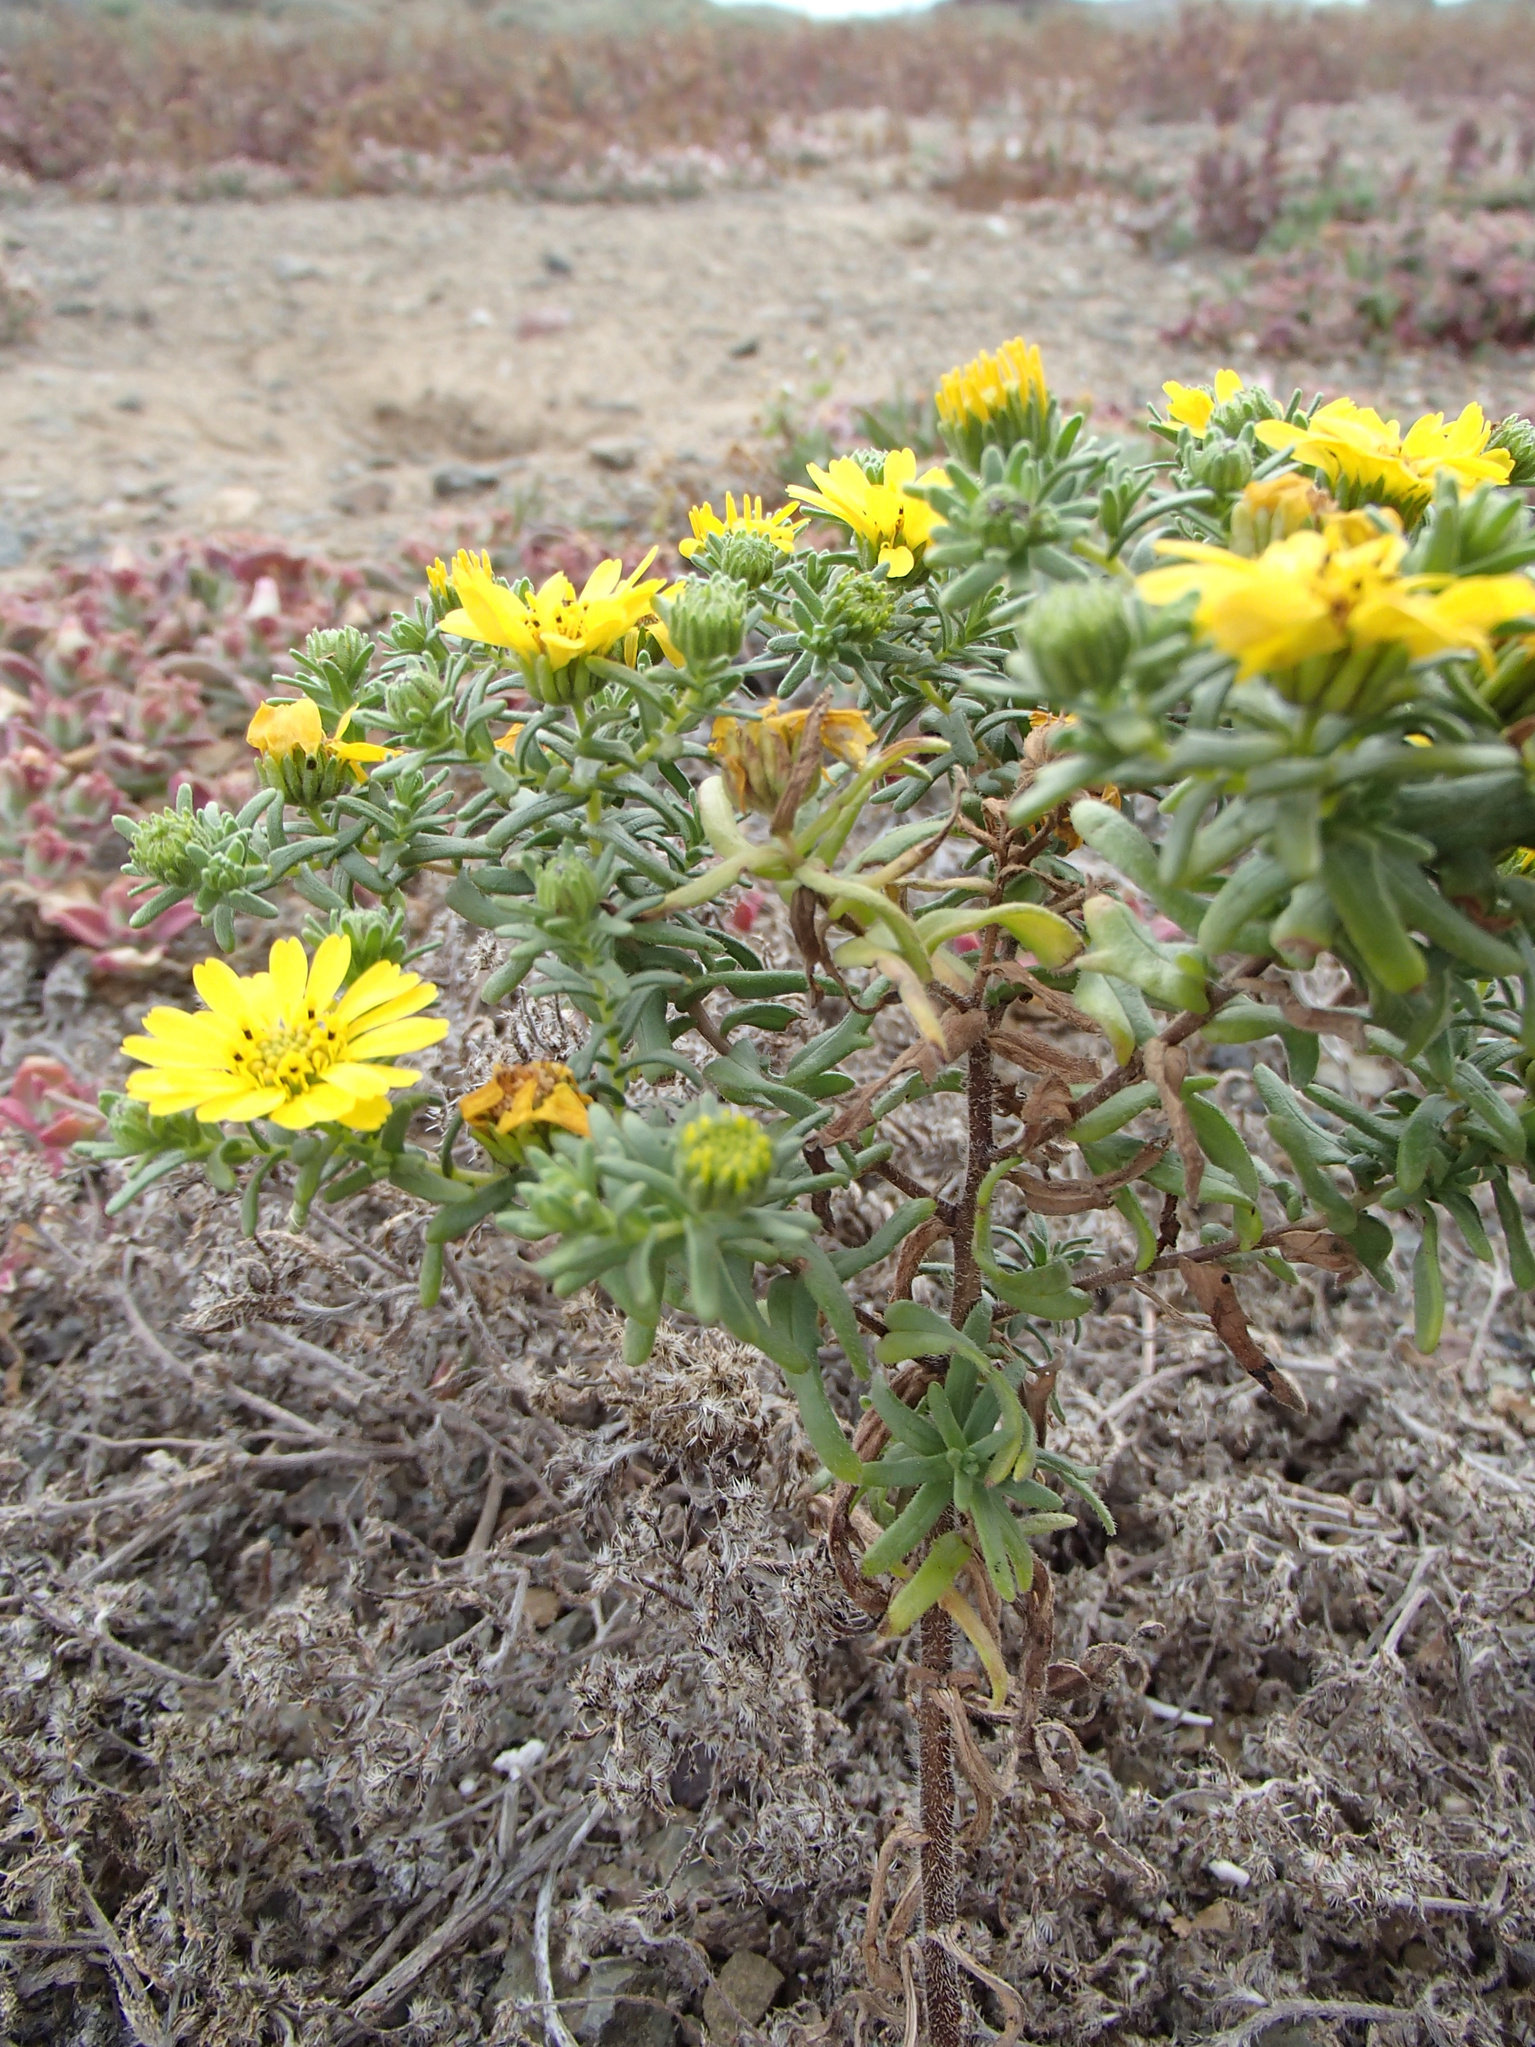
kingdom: Plantae
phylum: Tracheophyta
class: Magnoliopsida
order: Asterales
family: Asteraceae
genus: Deinandra
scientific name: Deinandra streetsii
